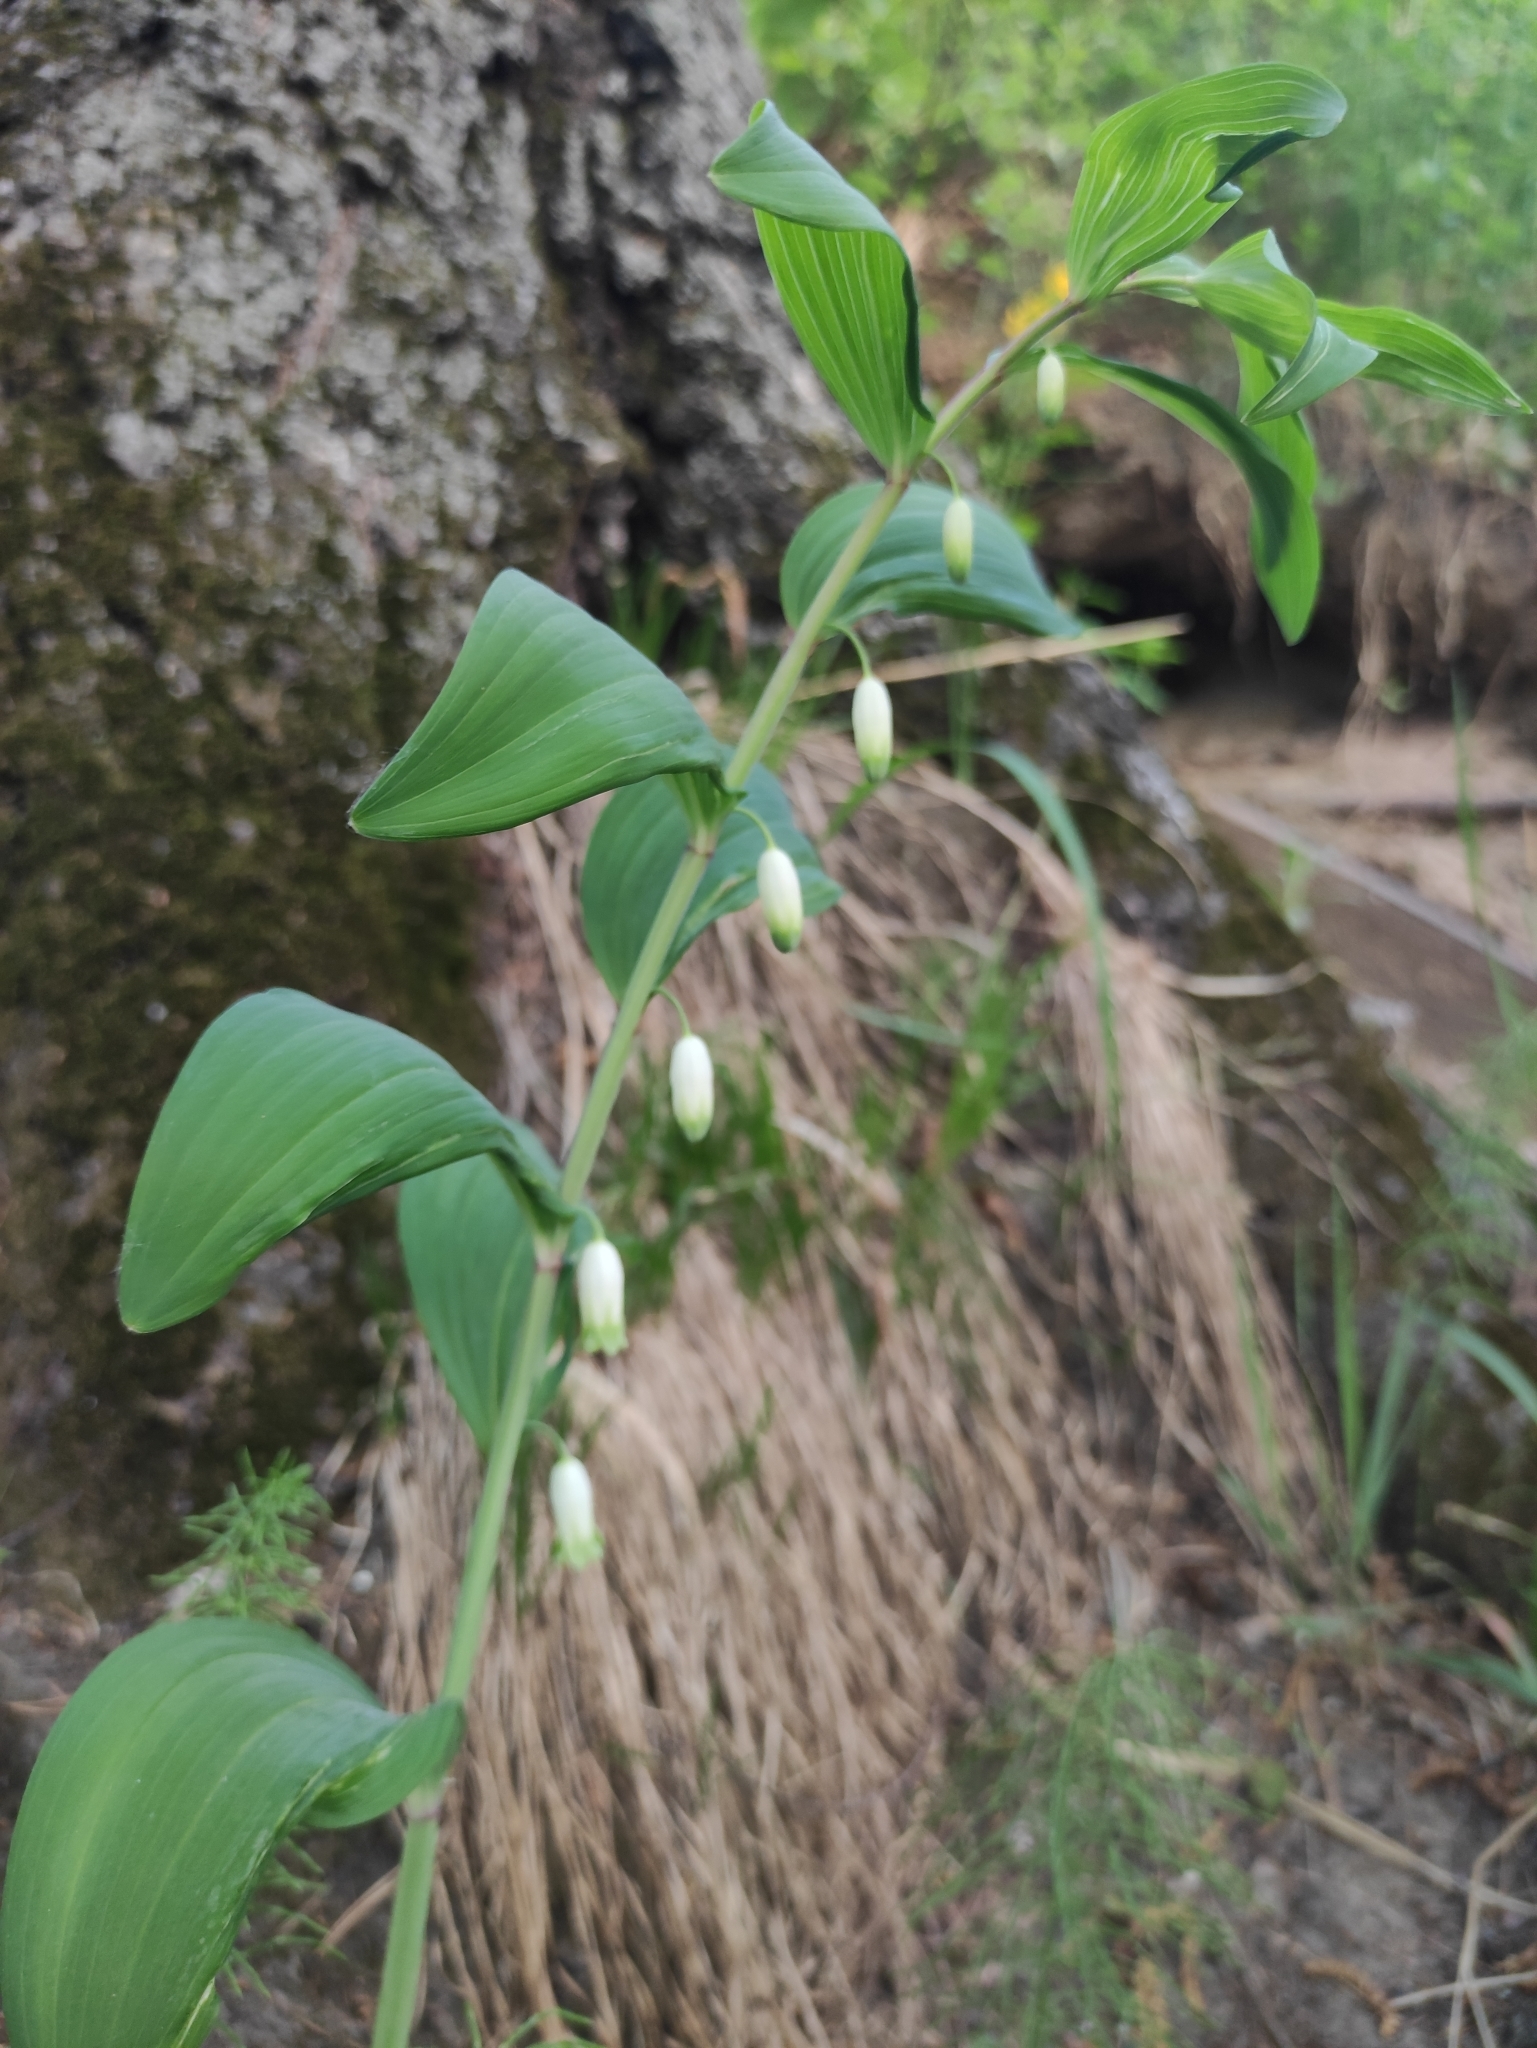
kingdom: Plantae
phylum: Tracheophyta
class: Liliopsida
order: Asparagales
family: Asparagaceae
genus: Polygonatum
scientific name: Polygonatum odoratum
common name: Angular solomon's-seal
